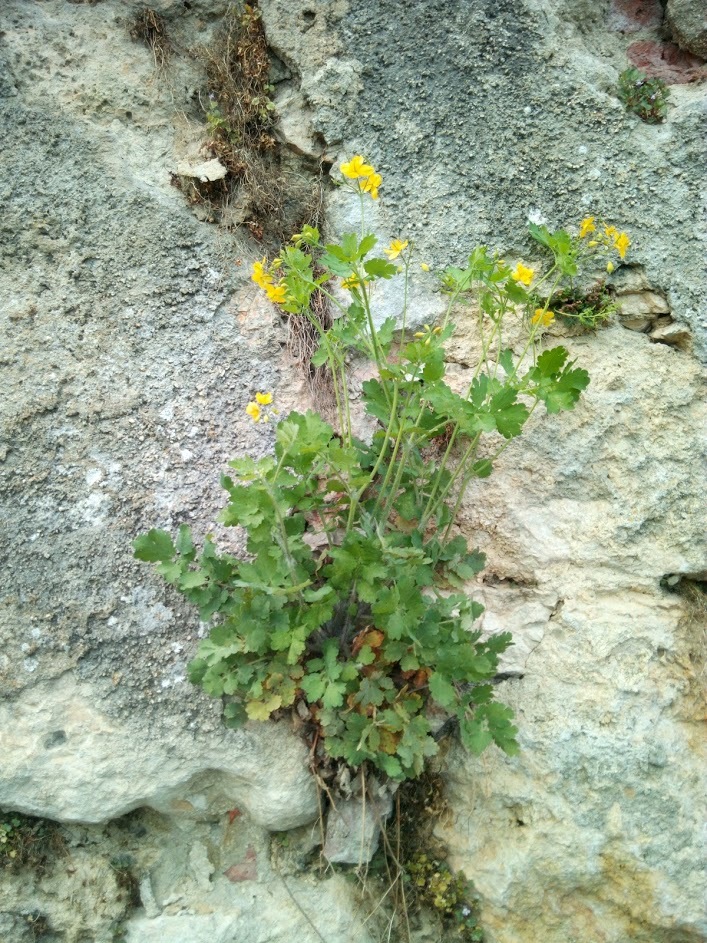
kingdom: Plantae
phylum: Tracheophyta
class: Magnoliopsida
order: Ranunculales
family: Papaveraceae
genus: Chelidonium
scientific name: Chelidonium majus
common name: Greater celandine
